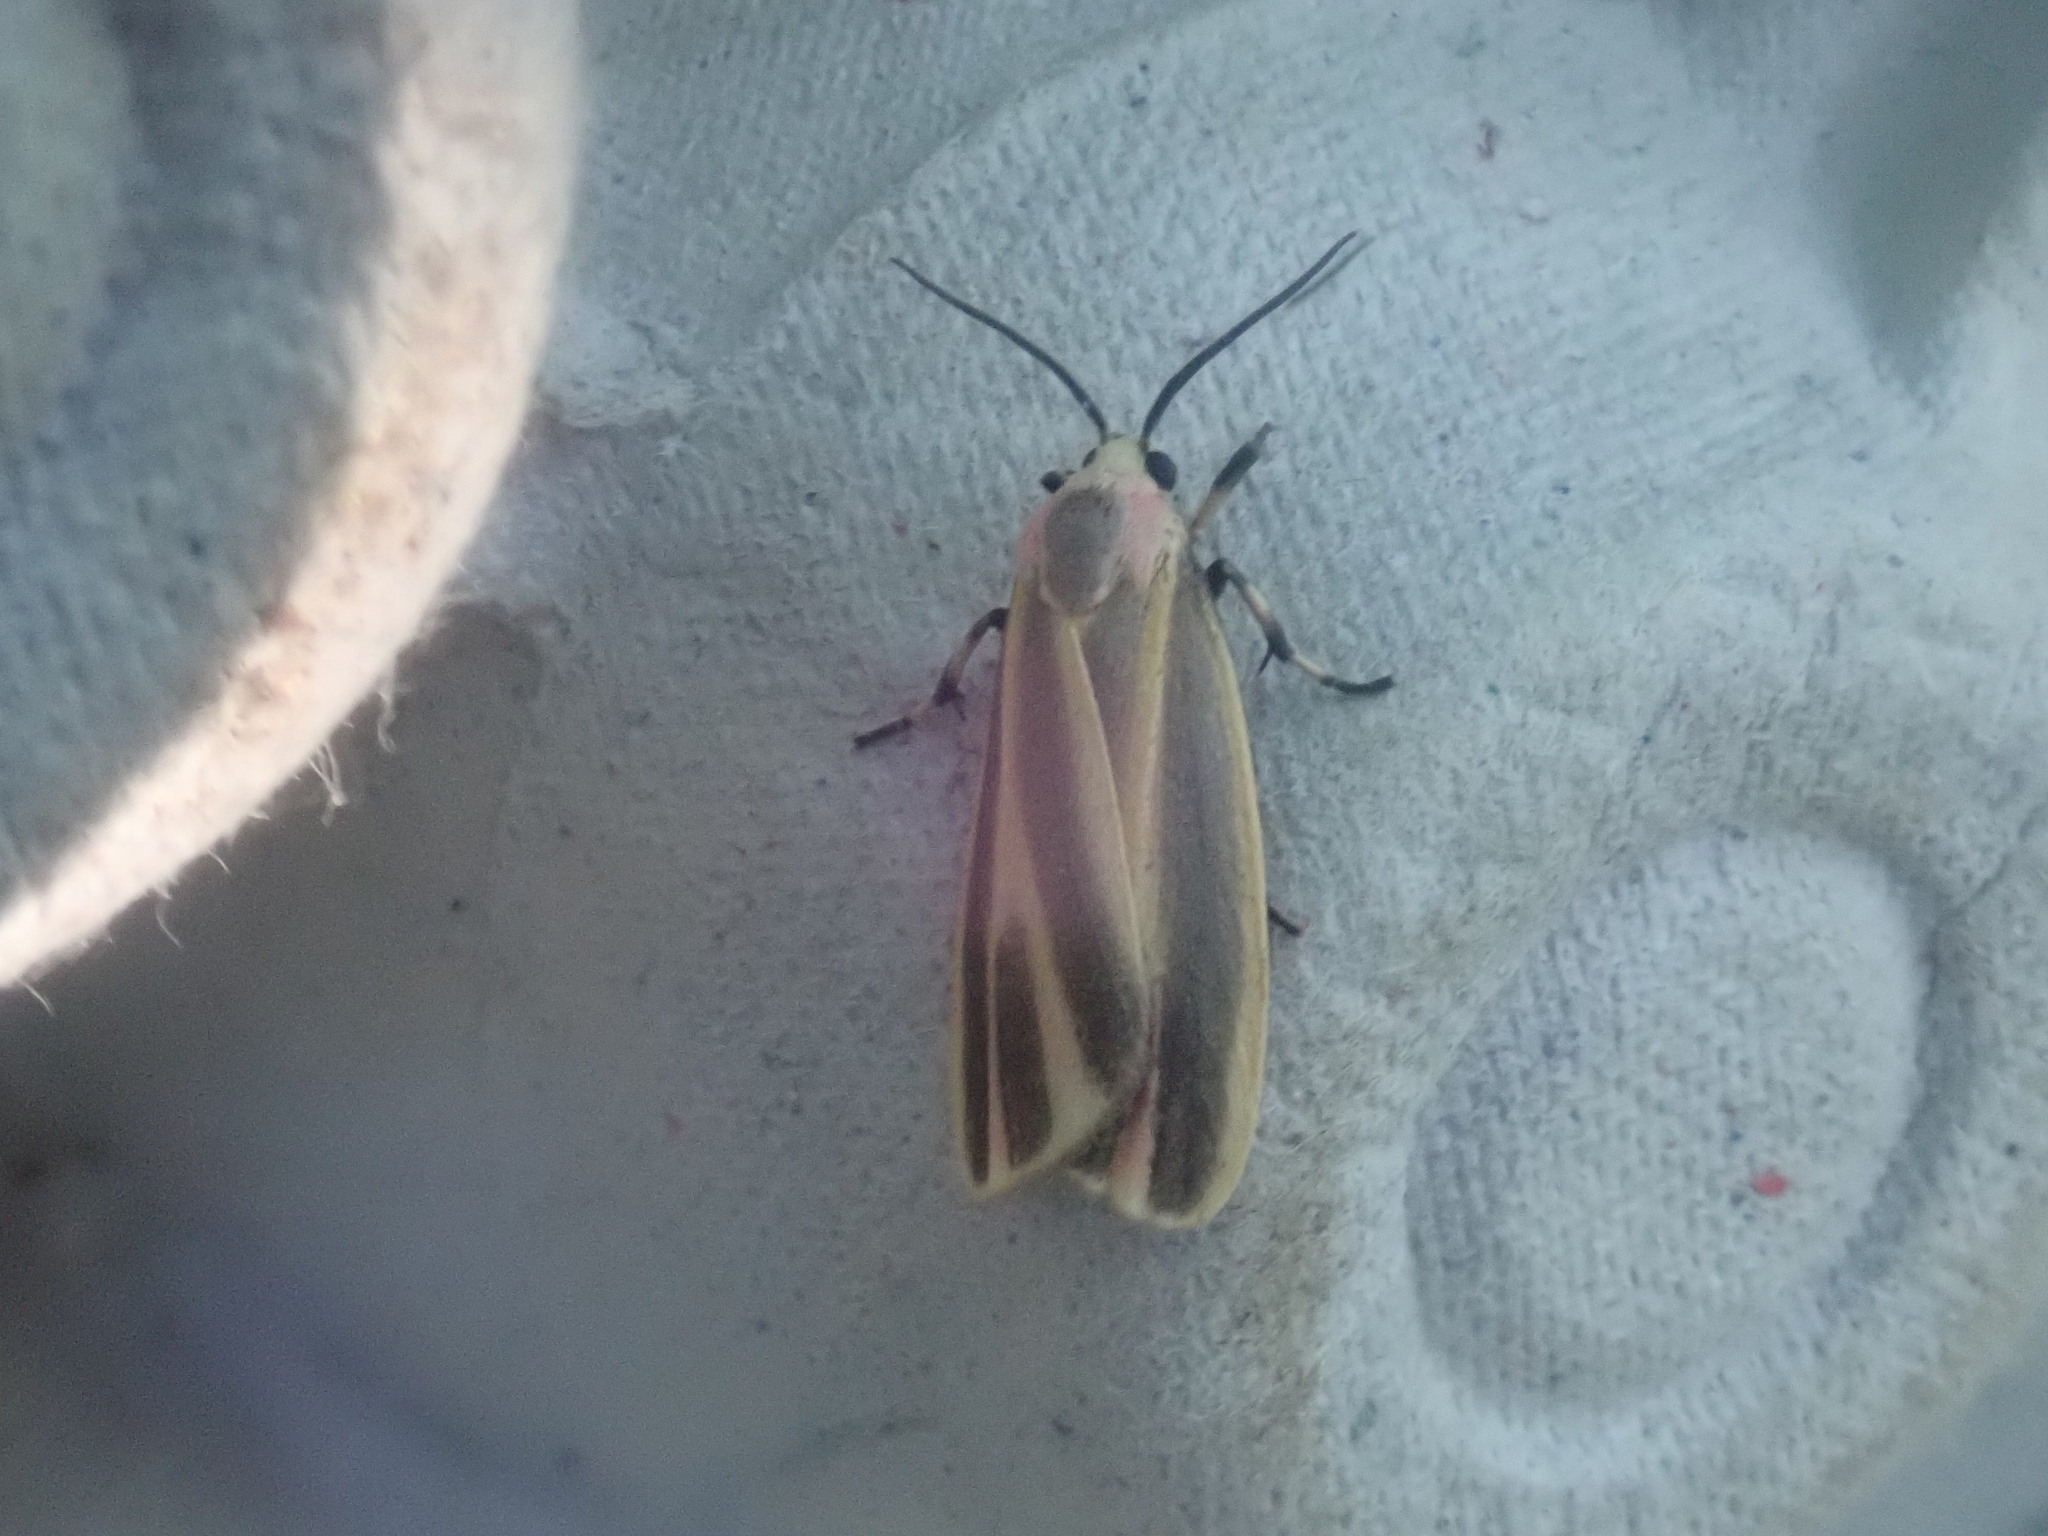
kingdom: Animalia
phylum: Arthropoda
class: Insecta
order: Lepidoptera
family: Erebidae
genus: Hypoprepia
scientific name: Hypoprepia fucosa
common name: Painted lichen moth
